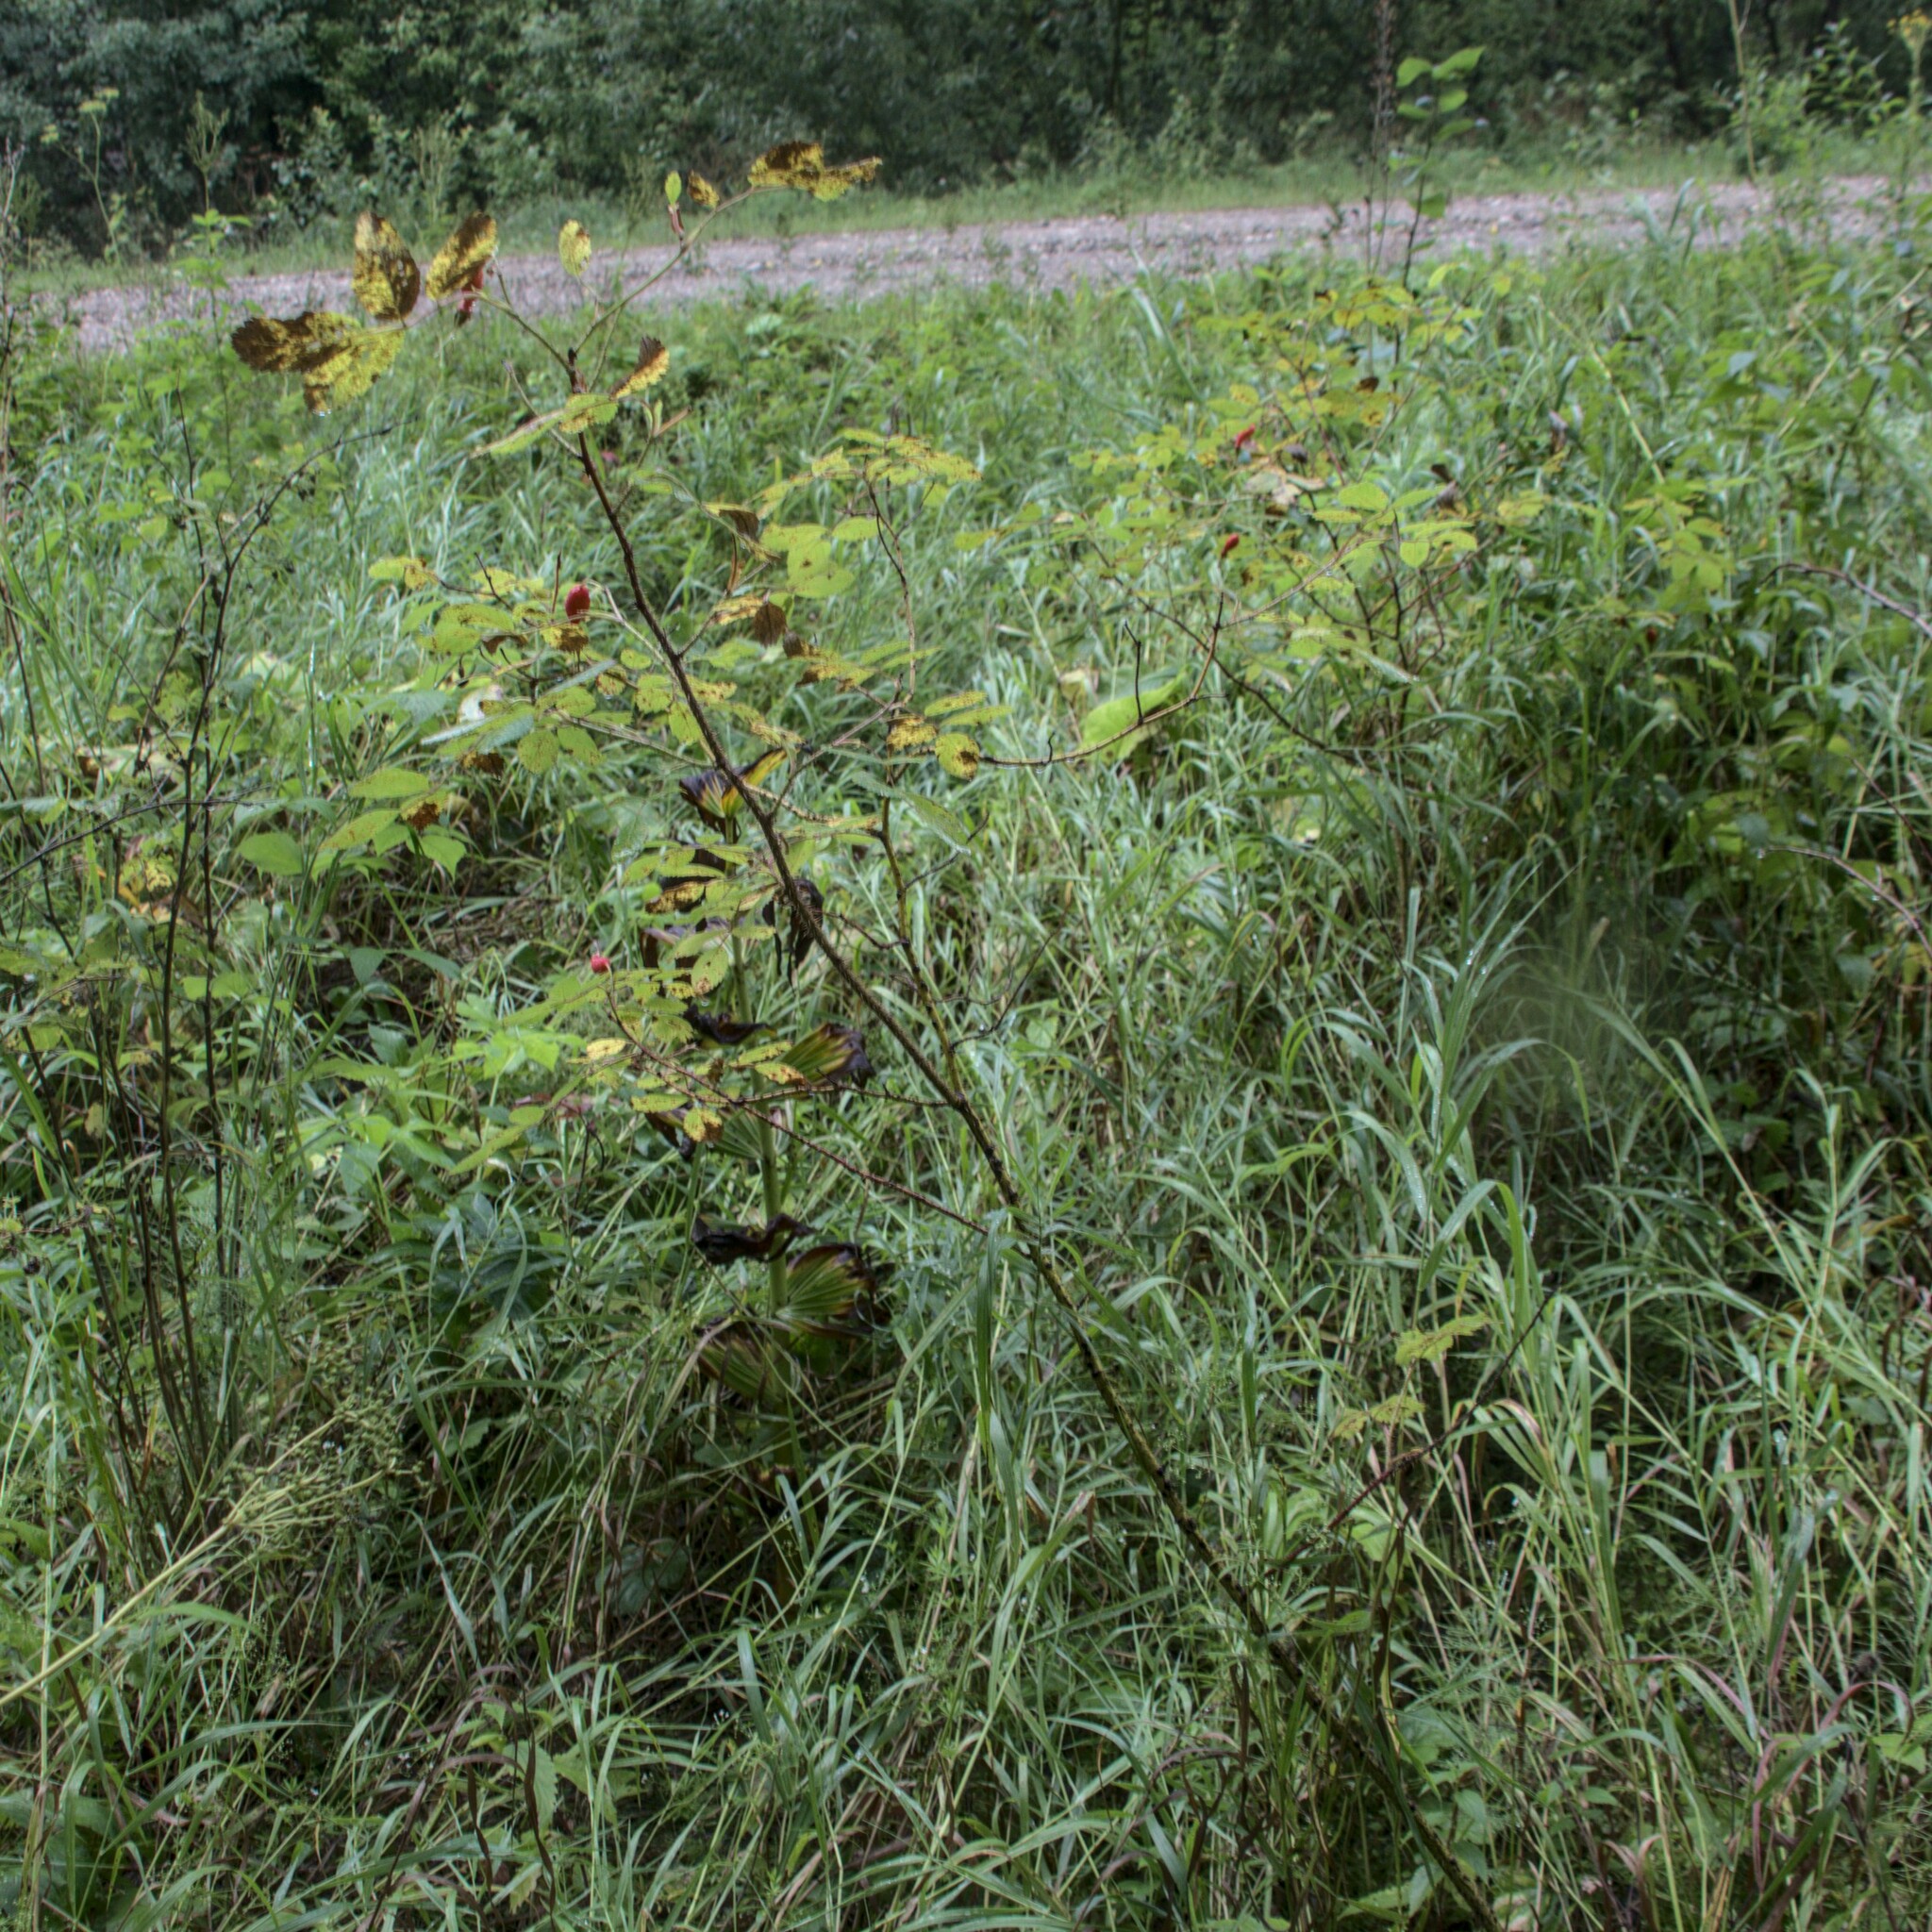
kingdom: Plantae
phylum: Tracheophyta
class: Magnoliopsida
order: Rosales
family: Rosaceae
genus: Rosa
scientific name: Rosa acicularis
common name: Prickly rose
